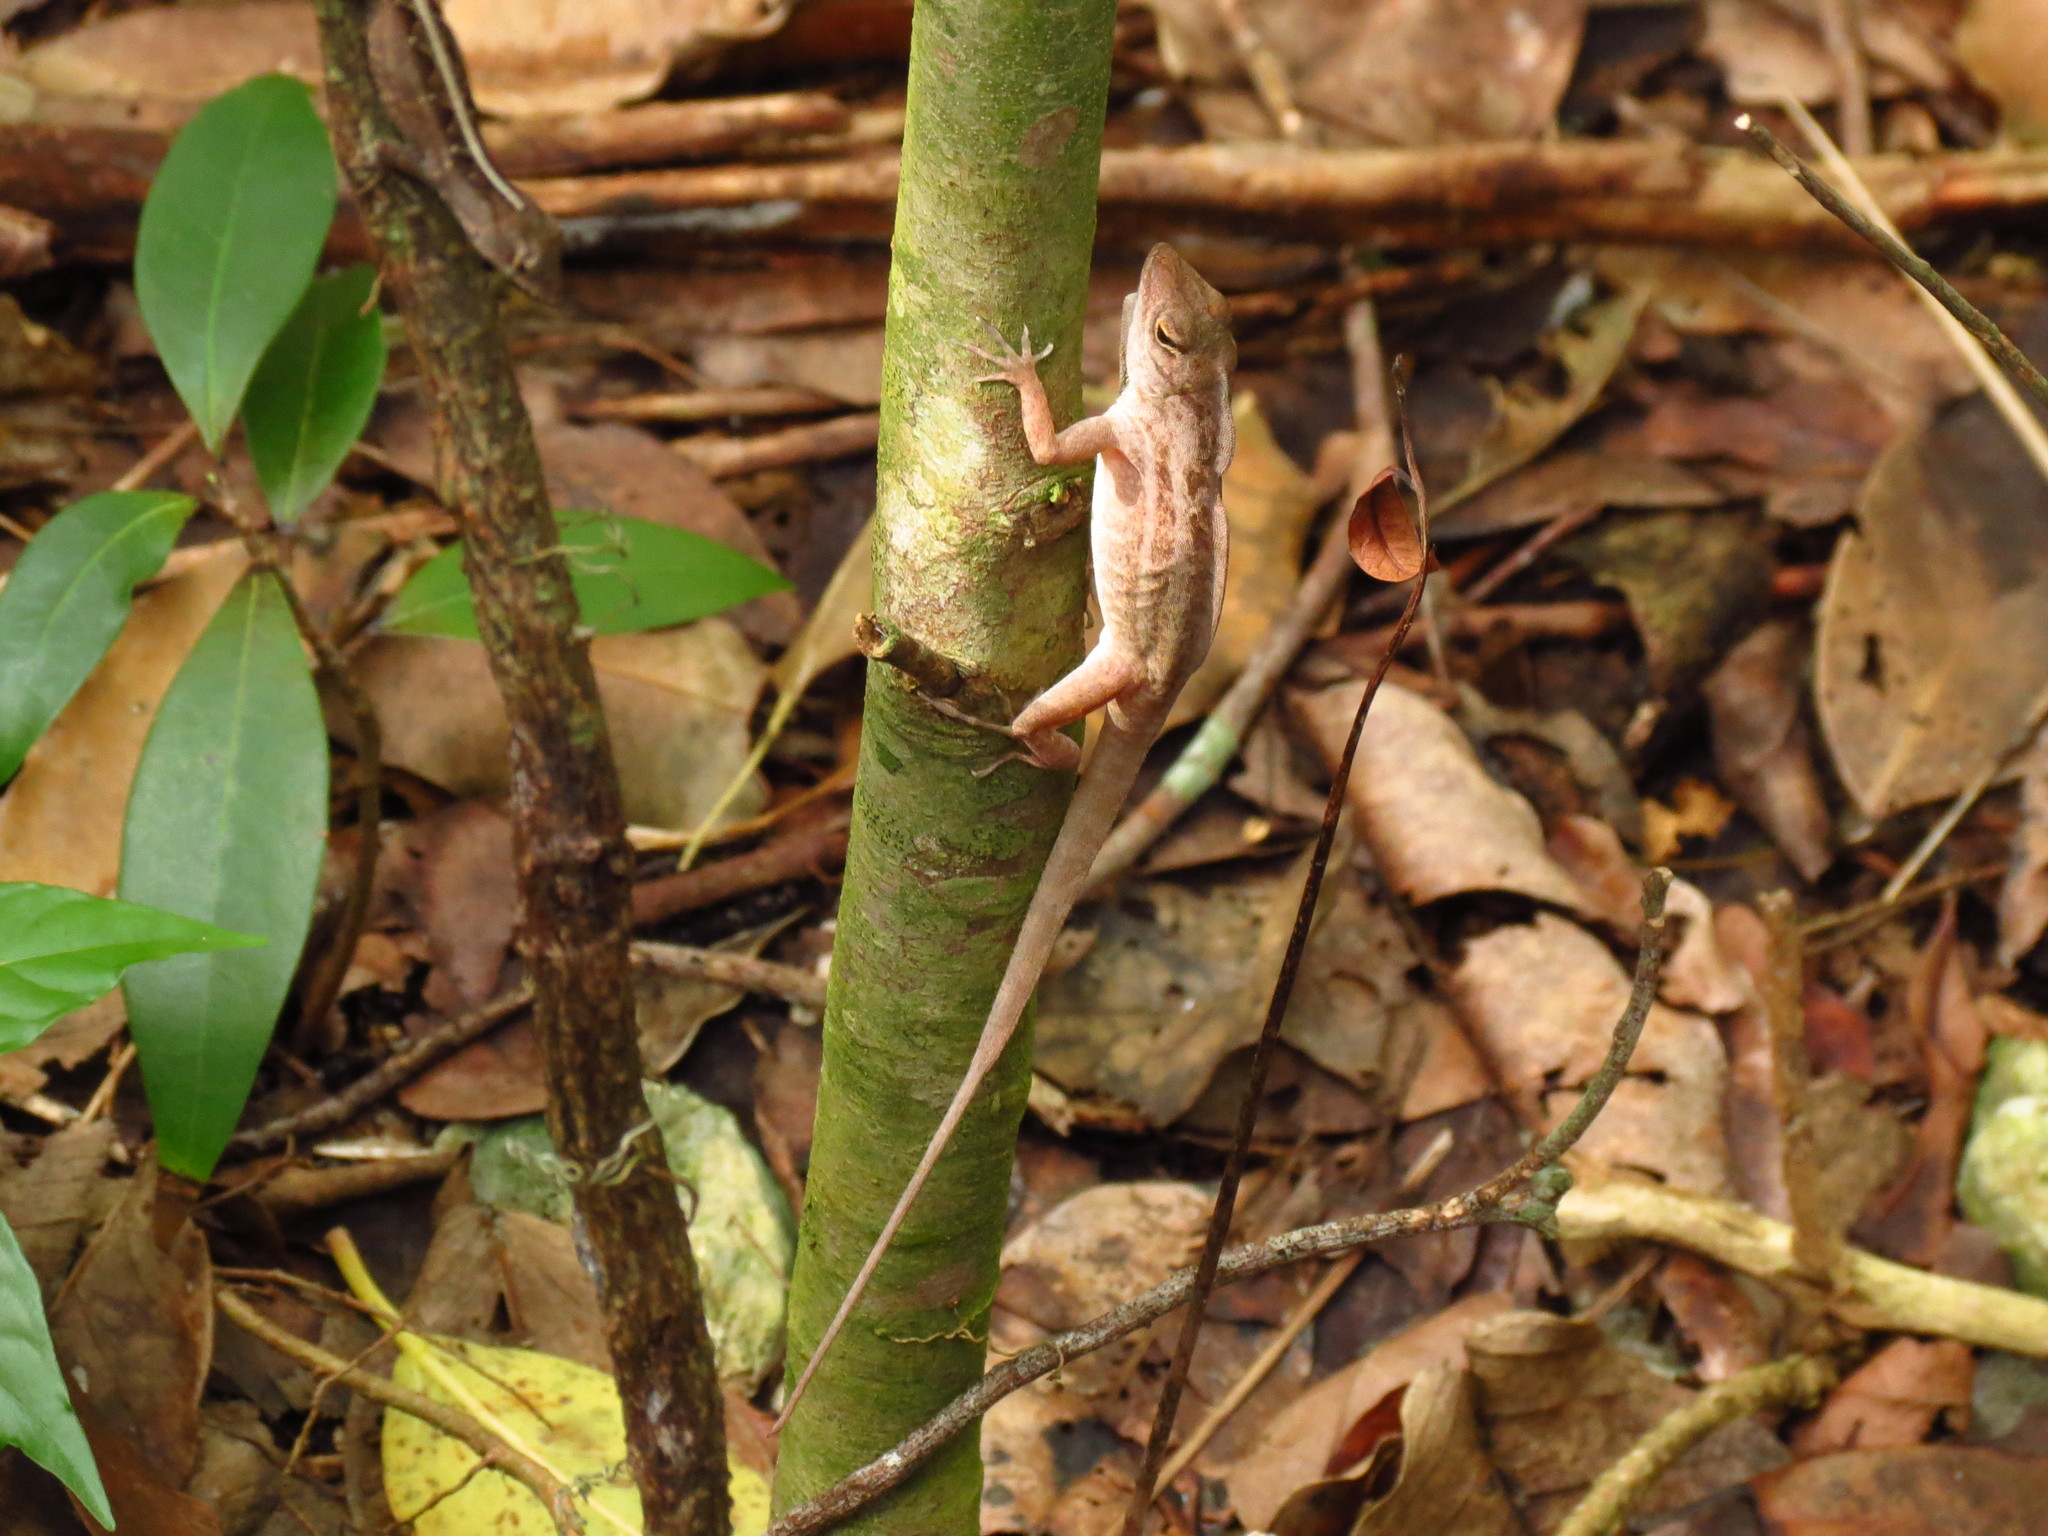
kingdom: Animalia
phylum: Chordata
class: Squamata
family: Dactyloidae
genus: Anolis
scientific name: Anolis sagrei
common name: Brown anole
